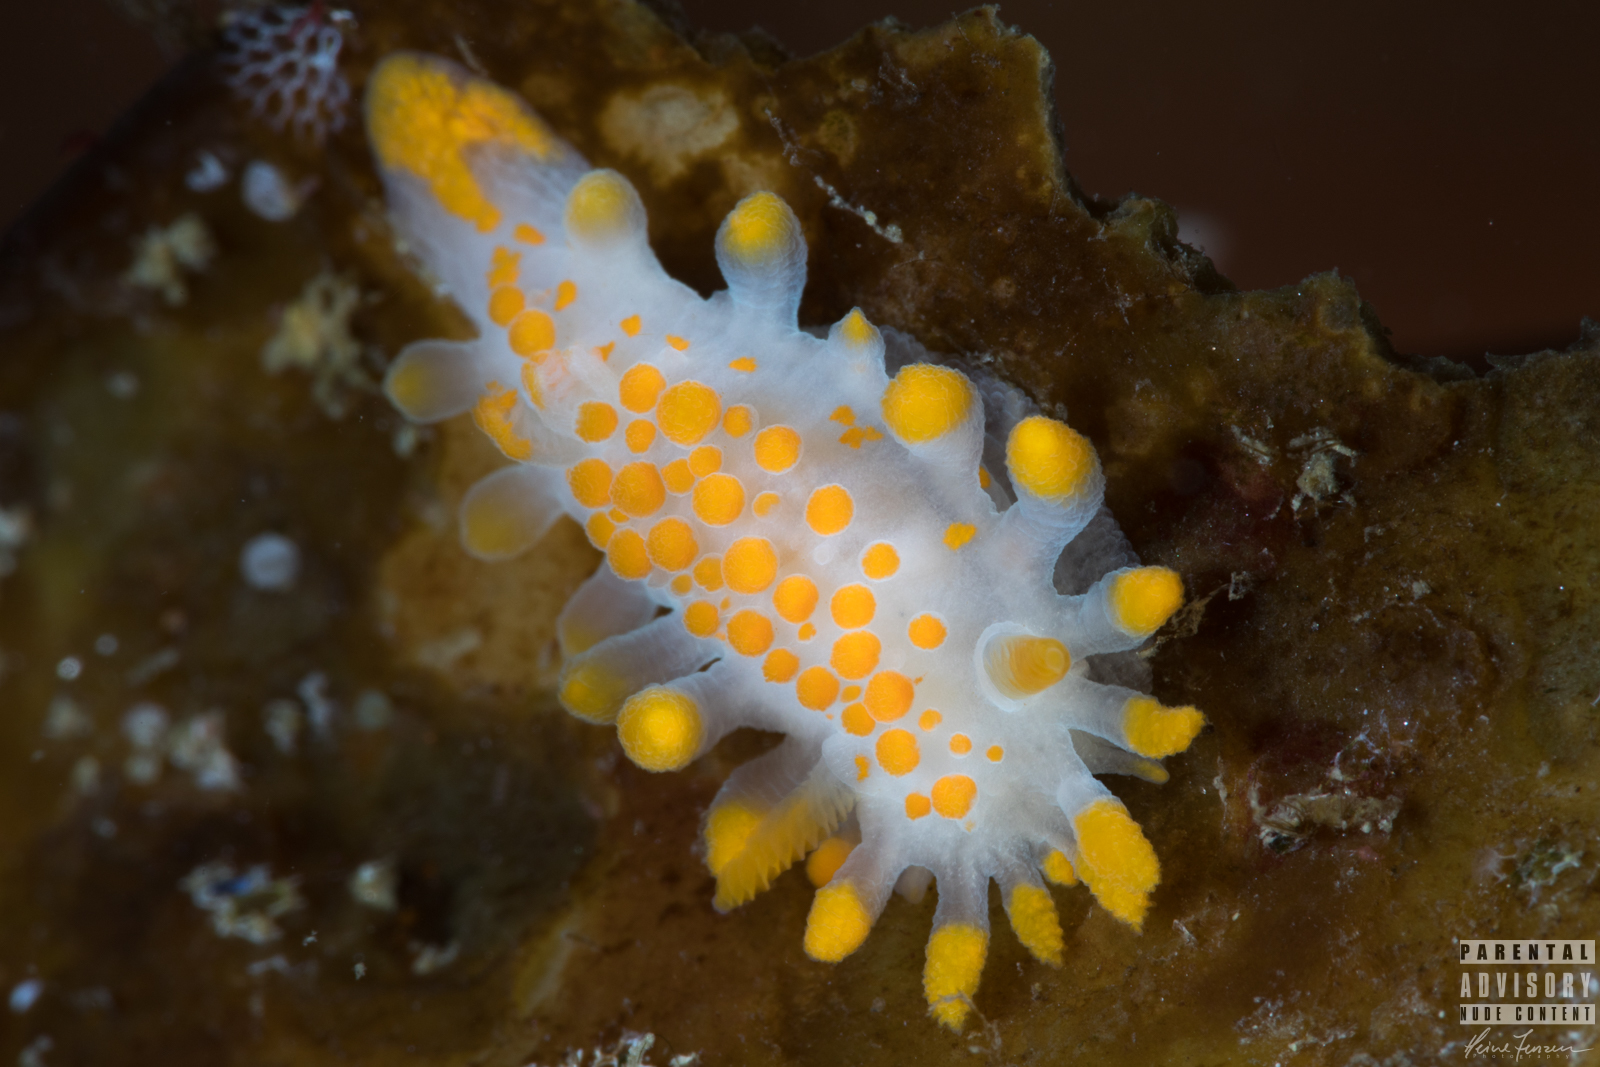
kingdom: Animalia
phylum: Mollusca
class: Gastropoda
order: Nudibranchia
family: Polyceridae
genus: Limacia
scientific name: Limacia clavigera
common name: Orange-clubbed sea slug
